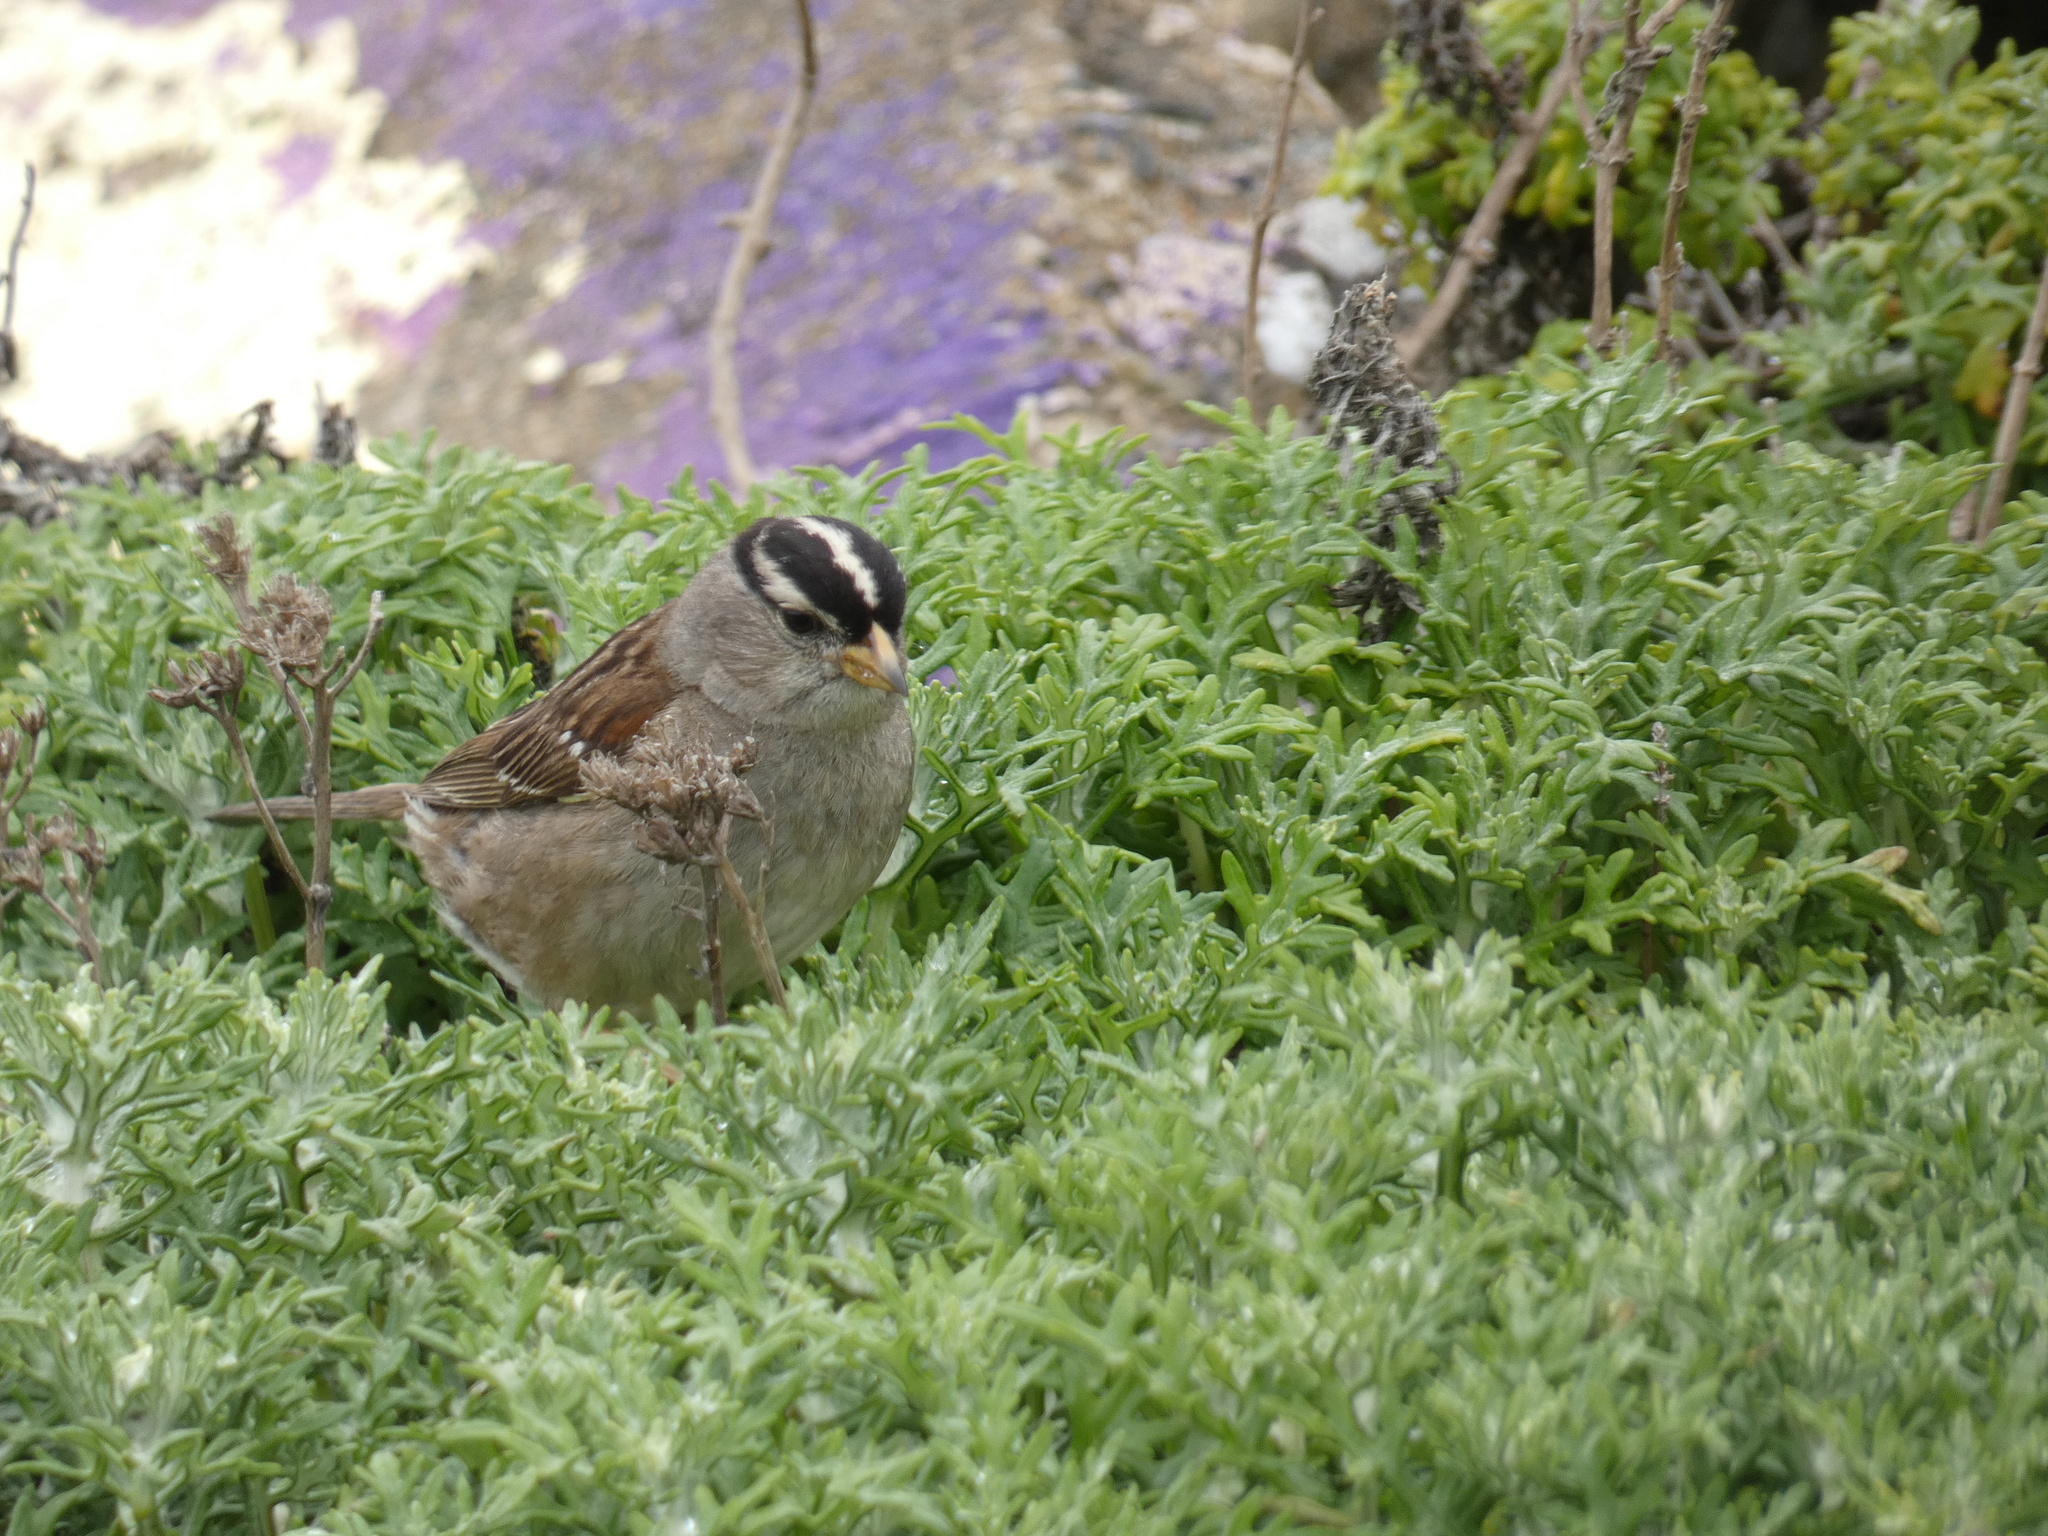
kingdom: Animalia
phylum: Chordata
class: Aves
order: Passeriformes
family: Passerellidae
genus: Zonotrichia
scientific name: Zonotrichia leucophrys
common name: White-crowned sparrow
